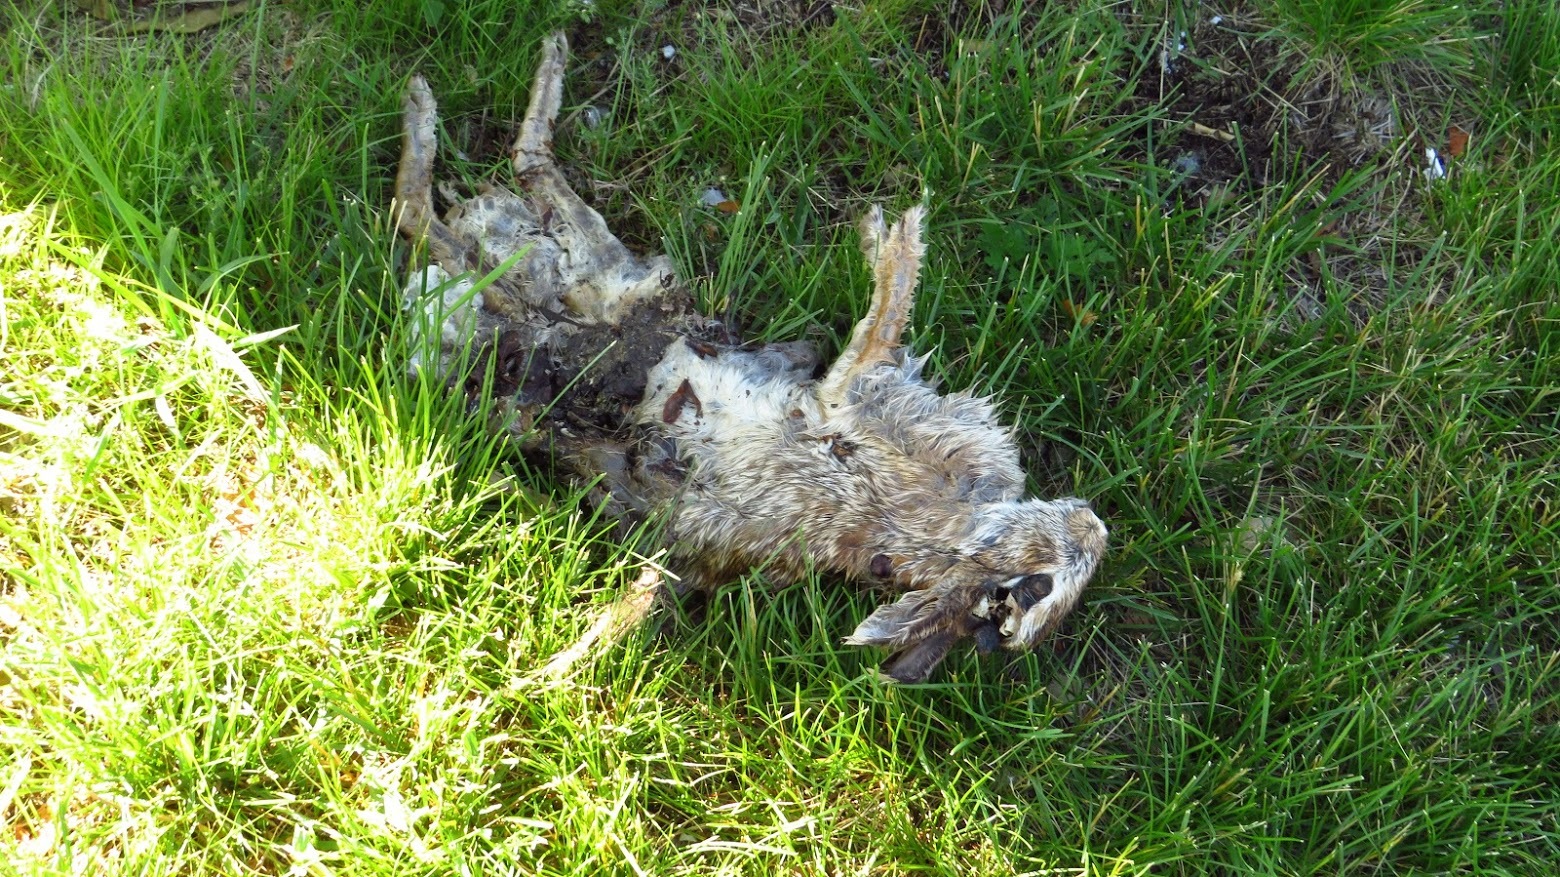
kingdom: Animalia
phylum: Chordata
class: Mammalia
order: Lagomorpha
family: Leporidae
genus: Sylvilagus
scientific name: Sylvilagus floridanus
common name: Eastern cottontail
